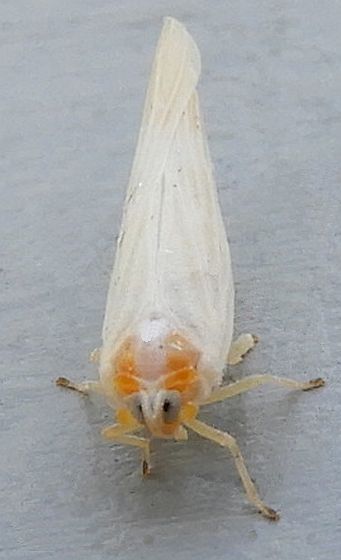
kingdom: Animalia
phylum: Arthropoda
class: Insecta
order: Hemiptera
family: Derbidae
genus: Neocenchrea
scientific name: Neocenchrea heidemanni
